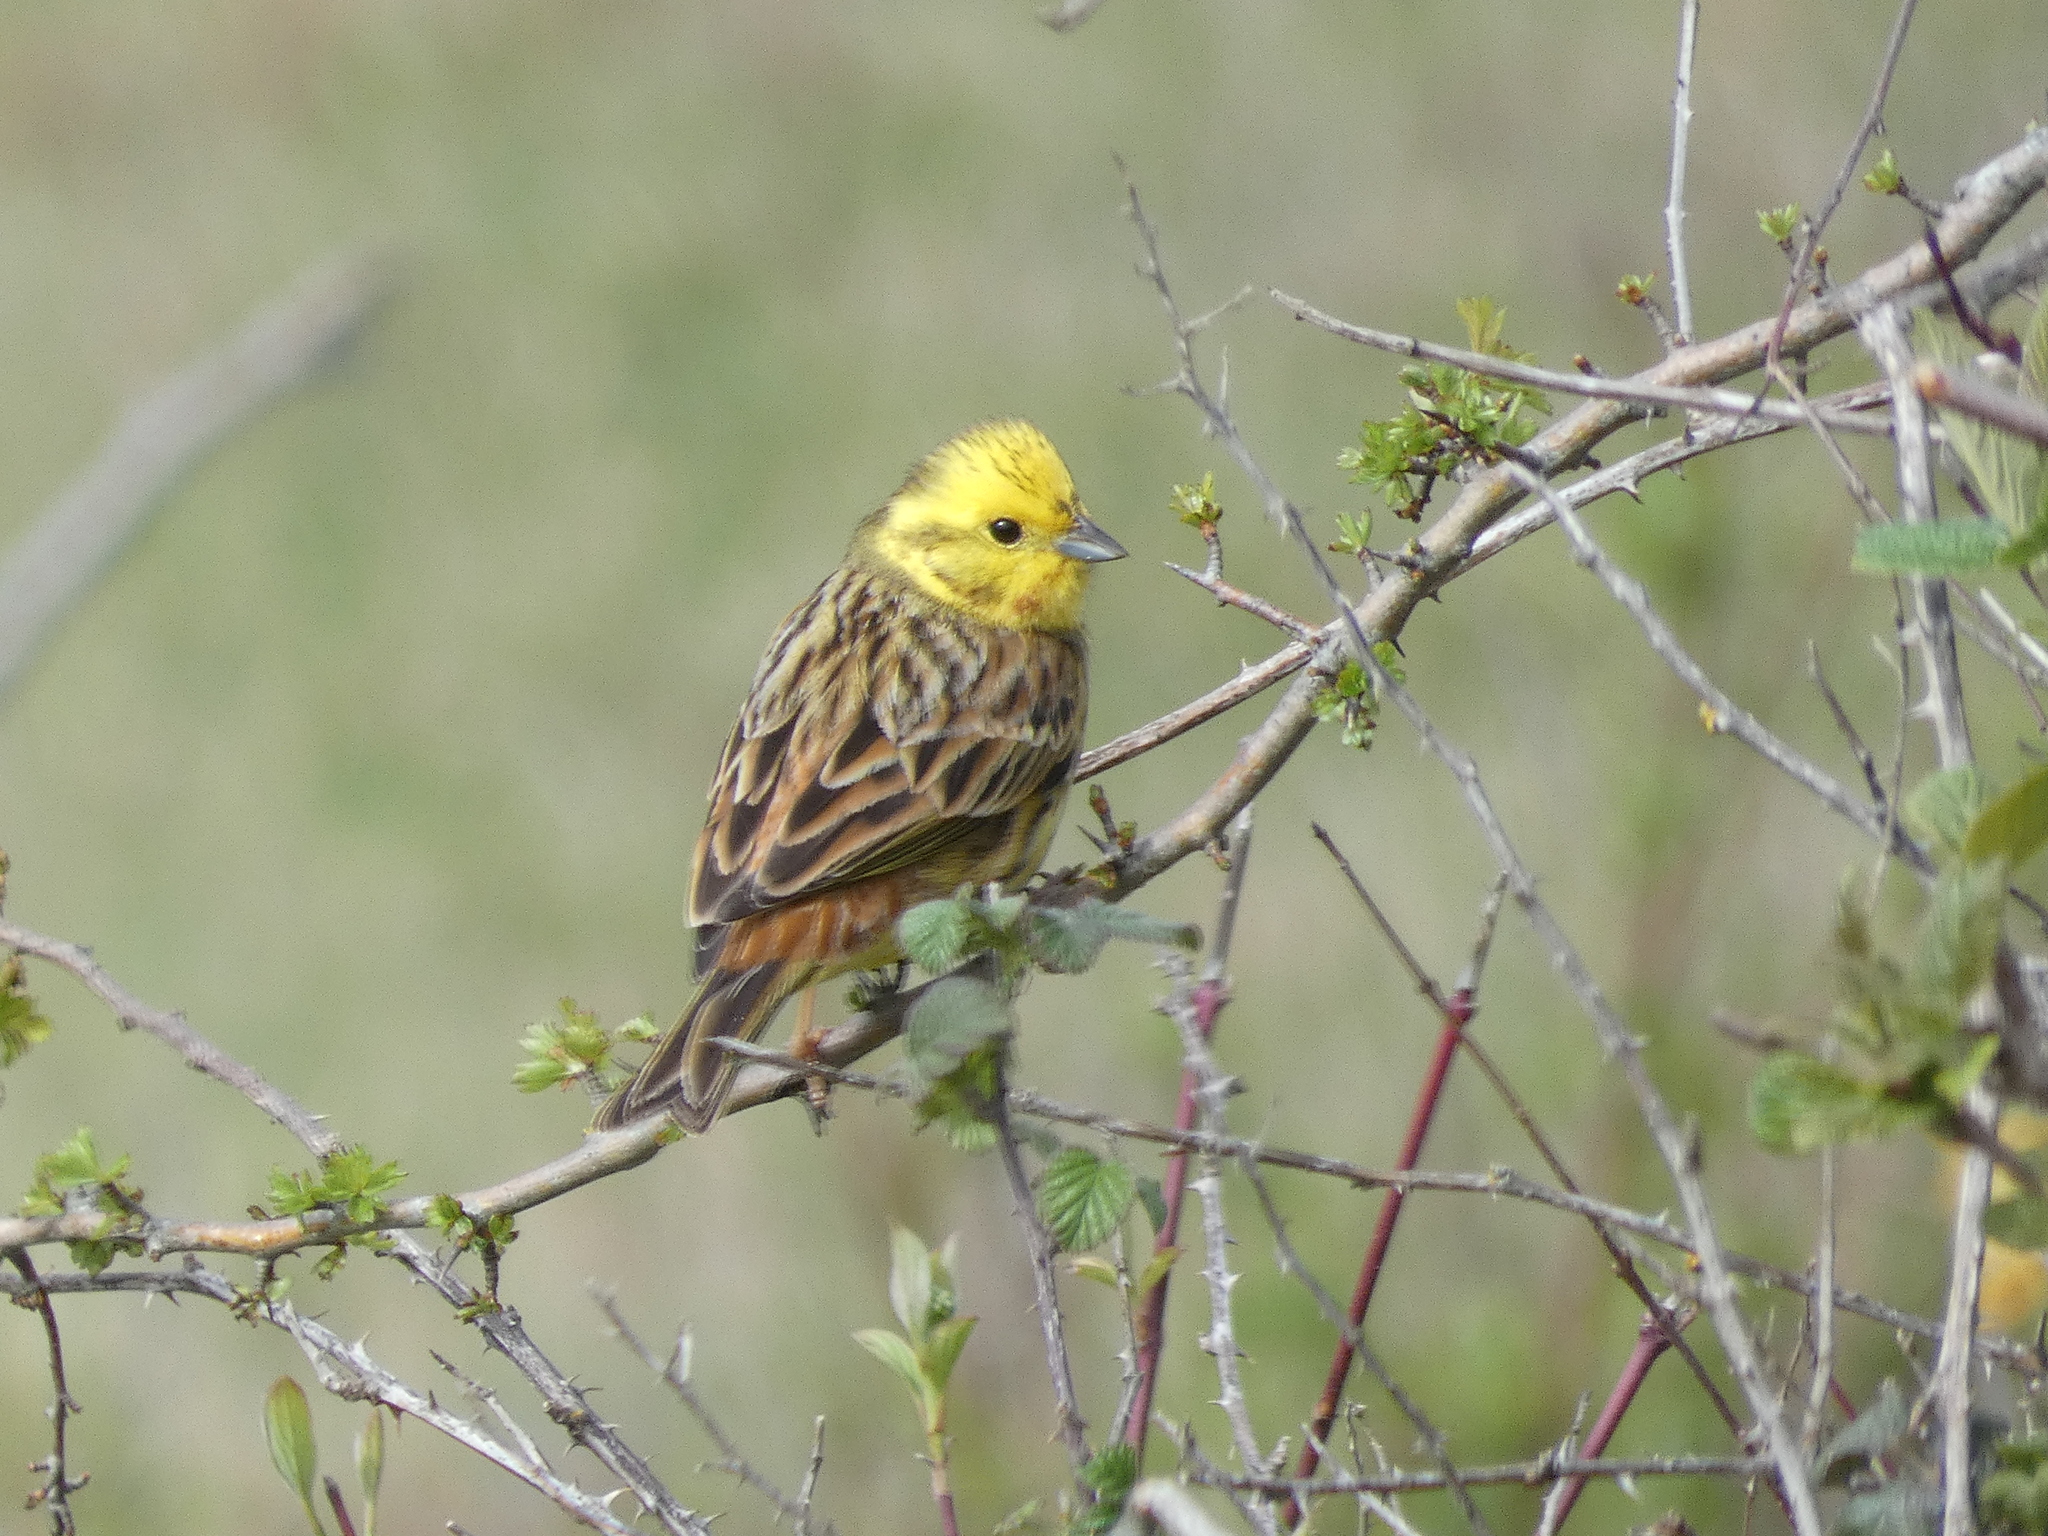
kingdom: Animalia
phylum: Chordata
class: Aves
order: Passeriformes
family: Emberizidae
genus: Emberiza
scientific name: Emberiza citrinella
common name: Yellowhammer
